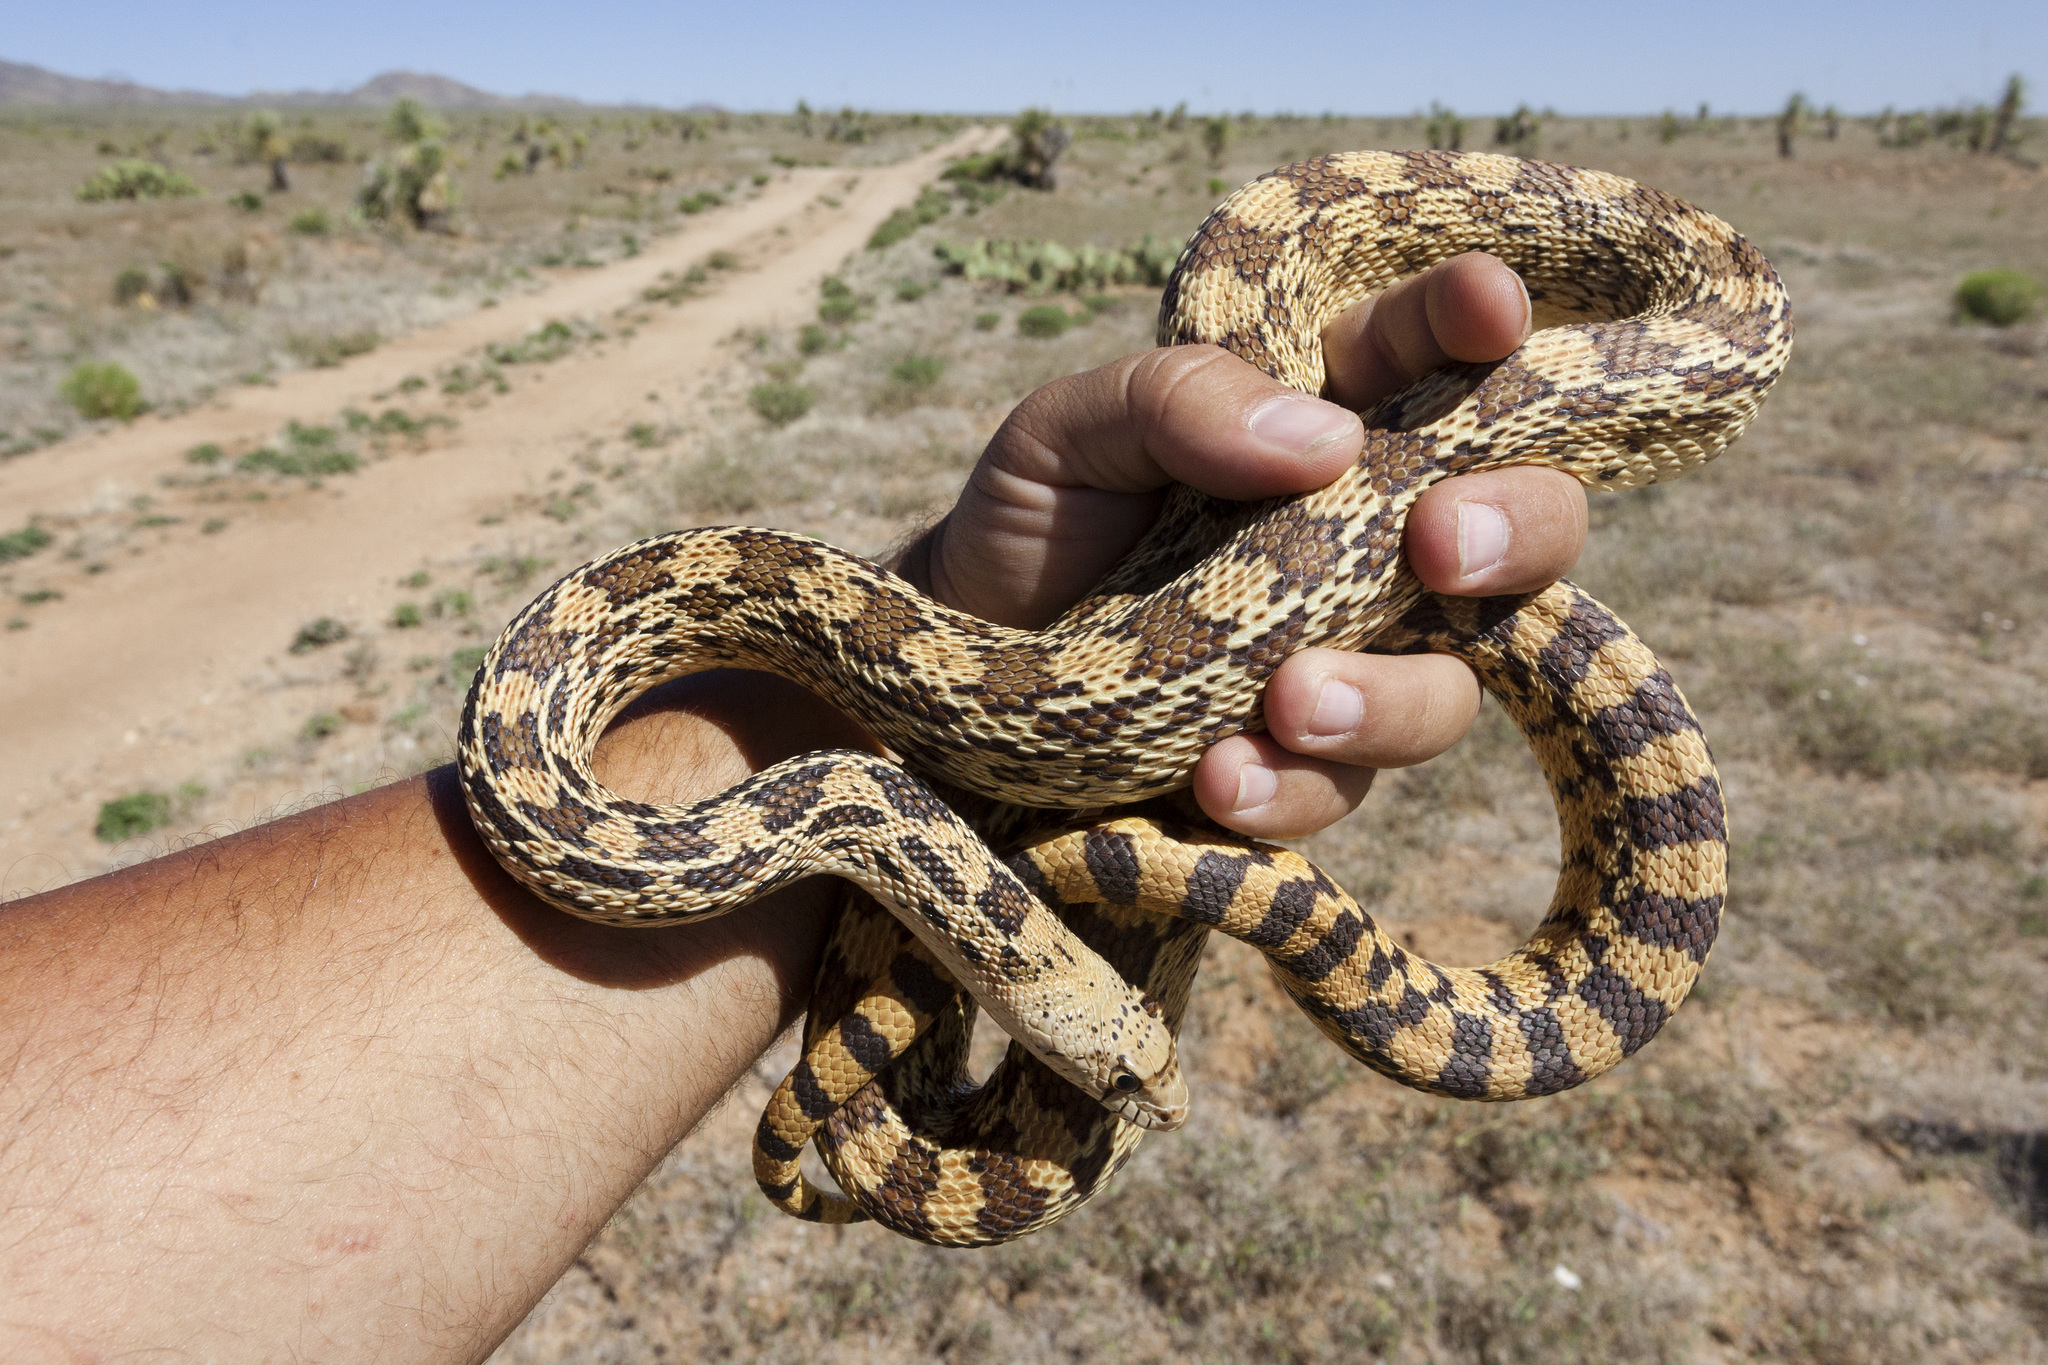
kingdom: Animalia
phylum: Chordata
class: Squamata
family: Colubridae
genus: Pituophis
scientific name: Pituophis catenifer
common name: Gopher snake
